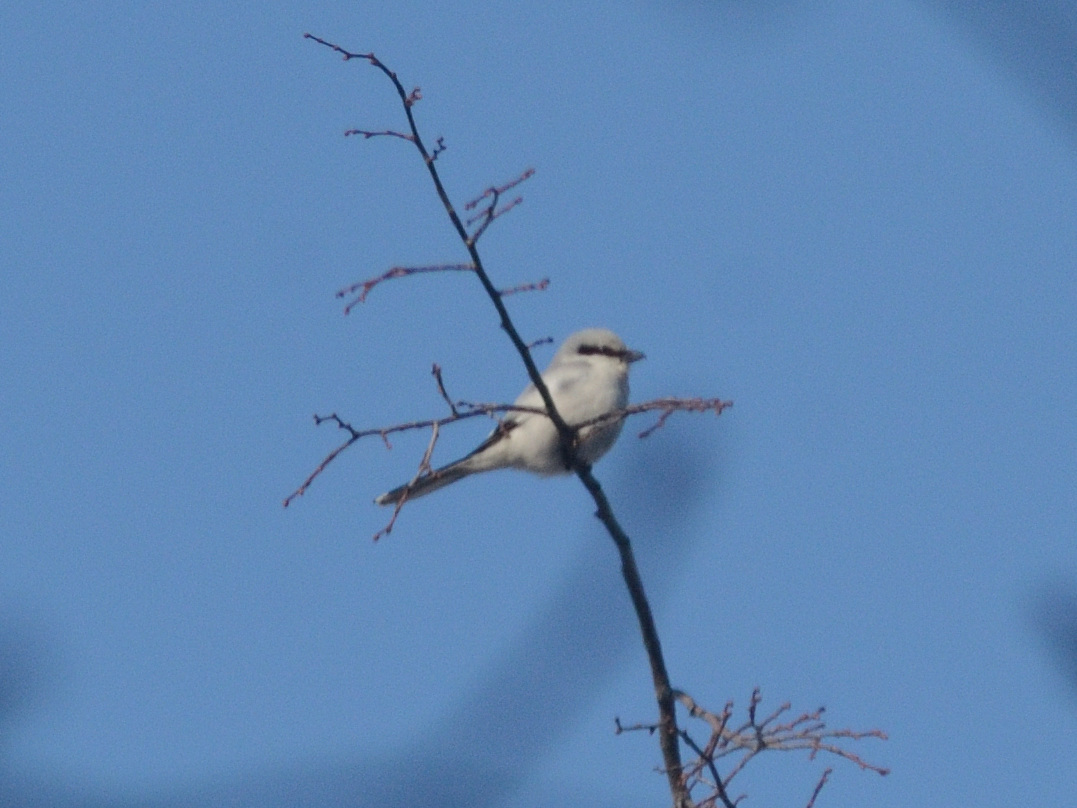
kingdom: Animalia
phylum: Chordata
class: Aves
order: Passeriformes
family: Laniidae
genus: Lanius
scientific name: Lanius excubitor
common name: Great grey shrike
